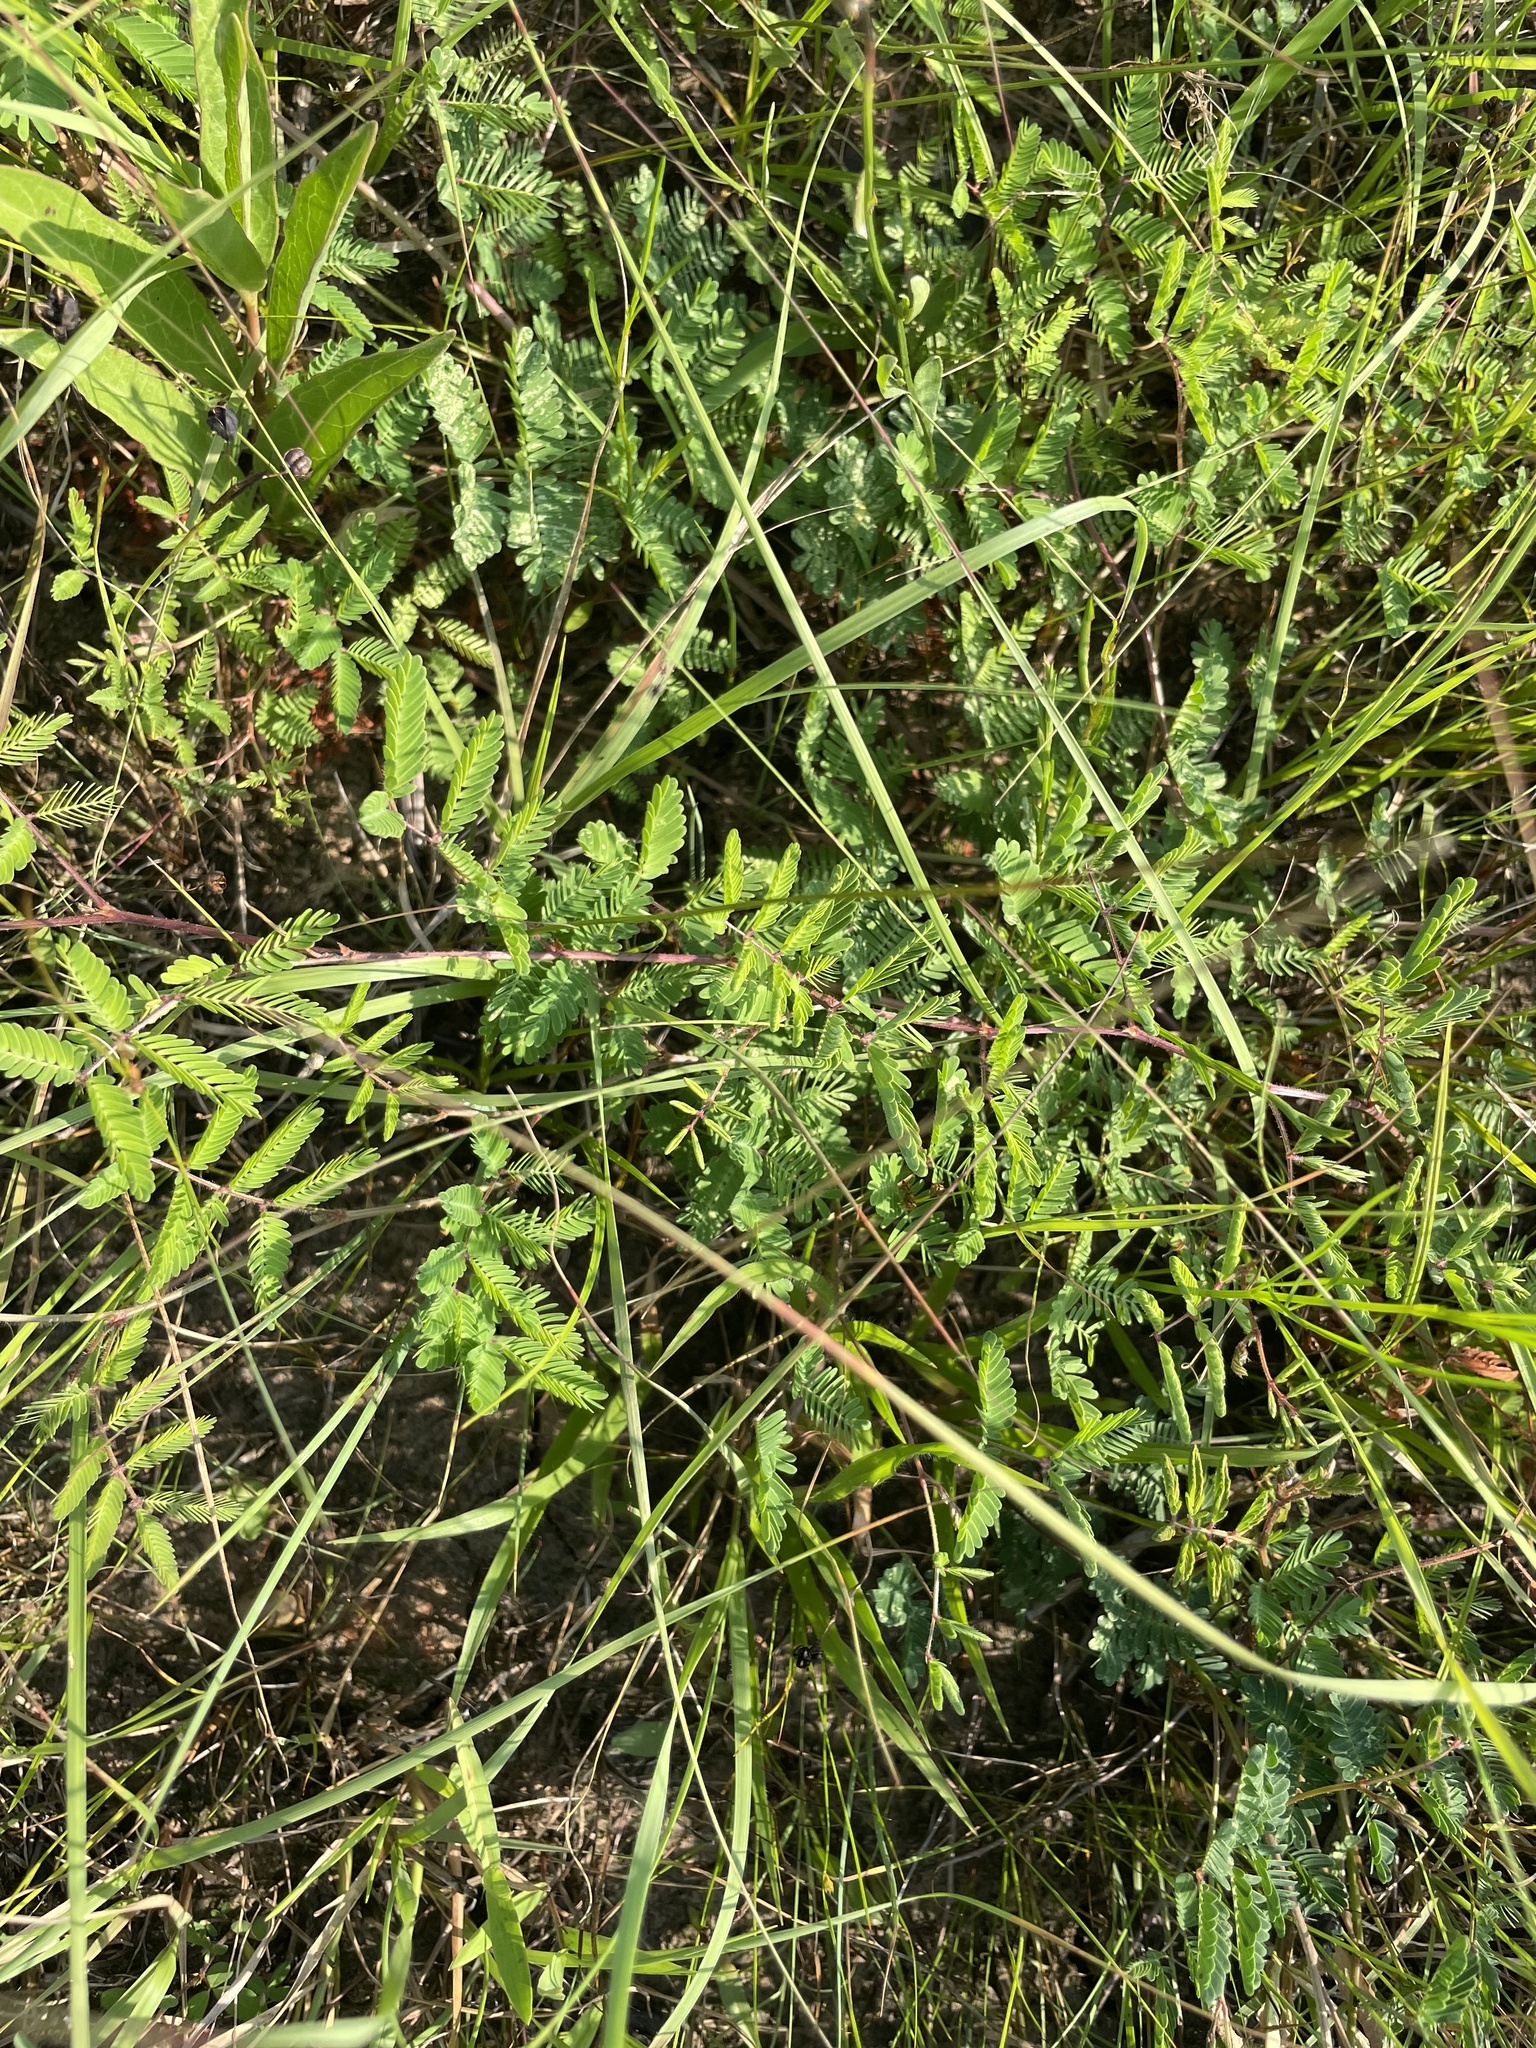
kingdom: Plantae
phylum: Tracheophyta
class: Magnoliopsida
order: Fabales
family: Fabaceae
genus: Neptunia
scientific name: Neptunia lutea
